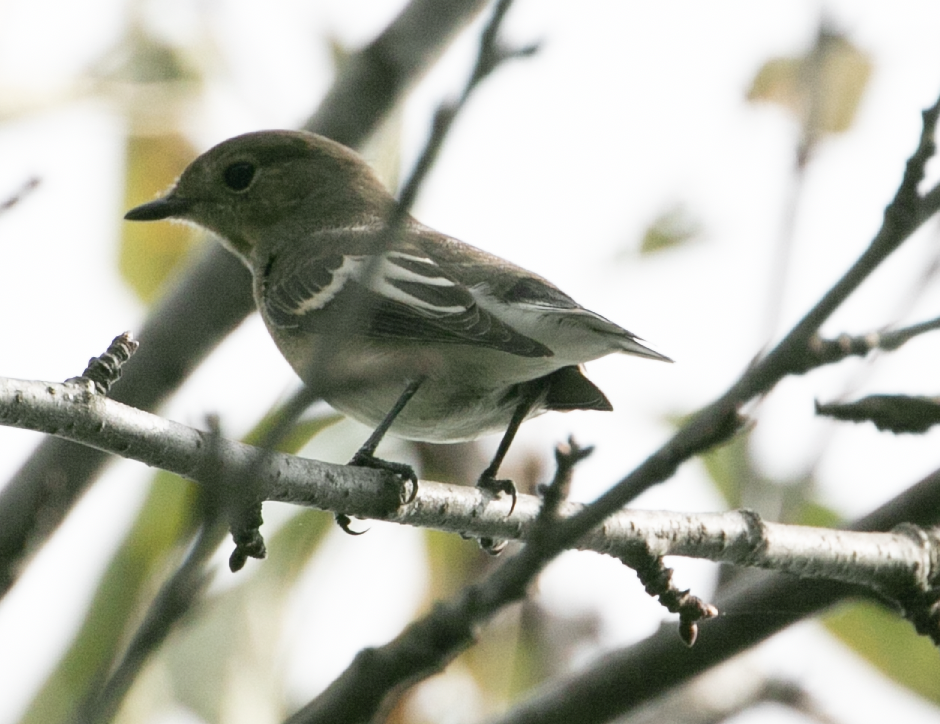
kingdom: Animalia
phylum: Chordata
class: Aves
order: Passeriformes
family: Muscicapidae
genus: Ficedula
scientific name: Ficedula hypoleuca
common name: European pied flycatcher
